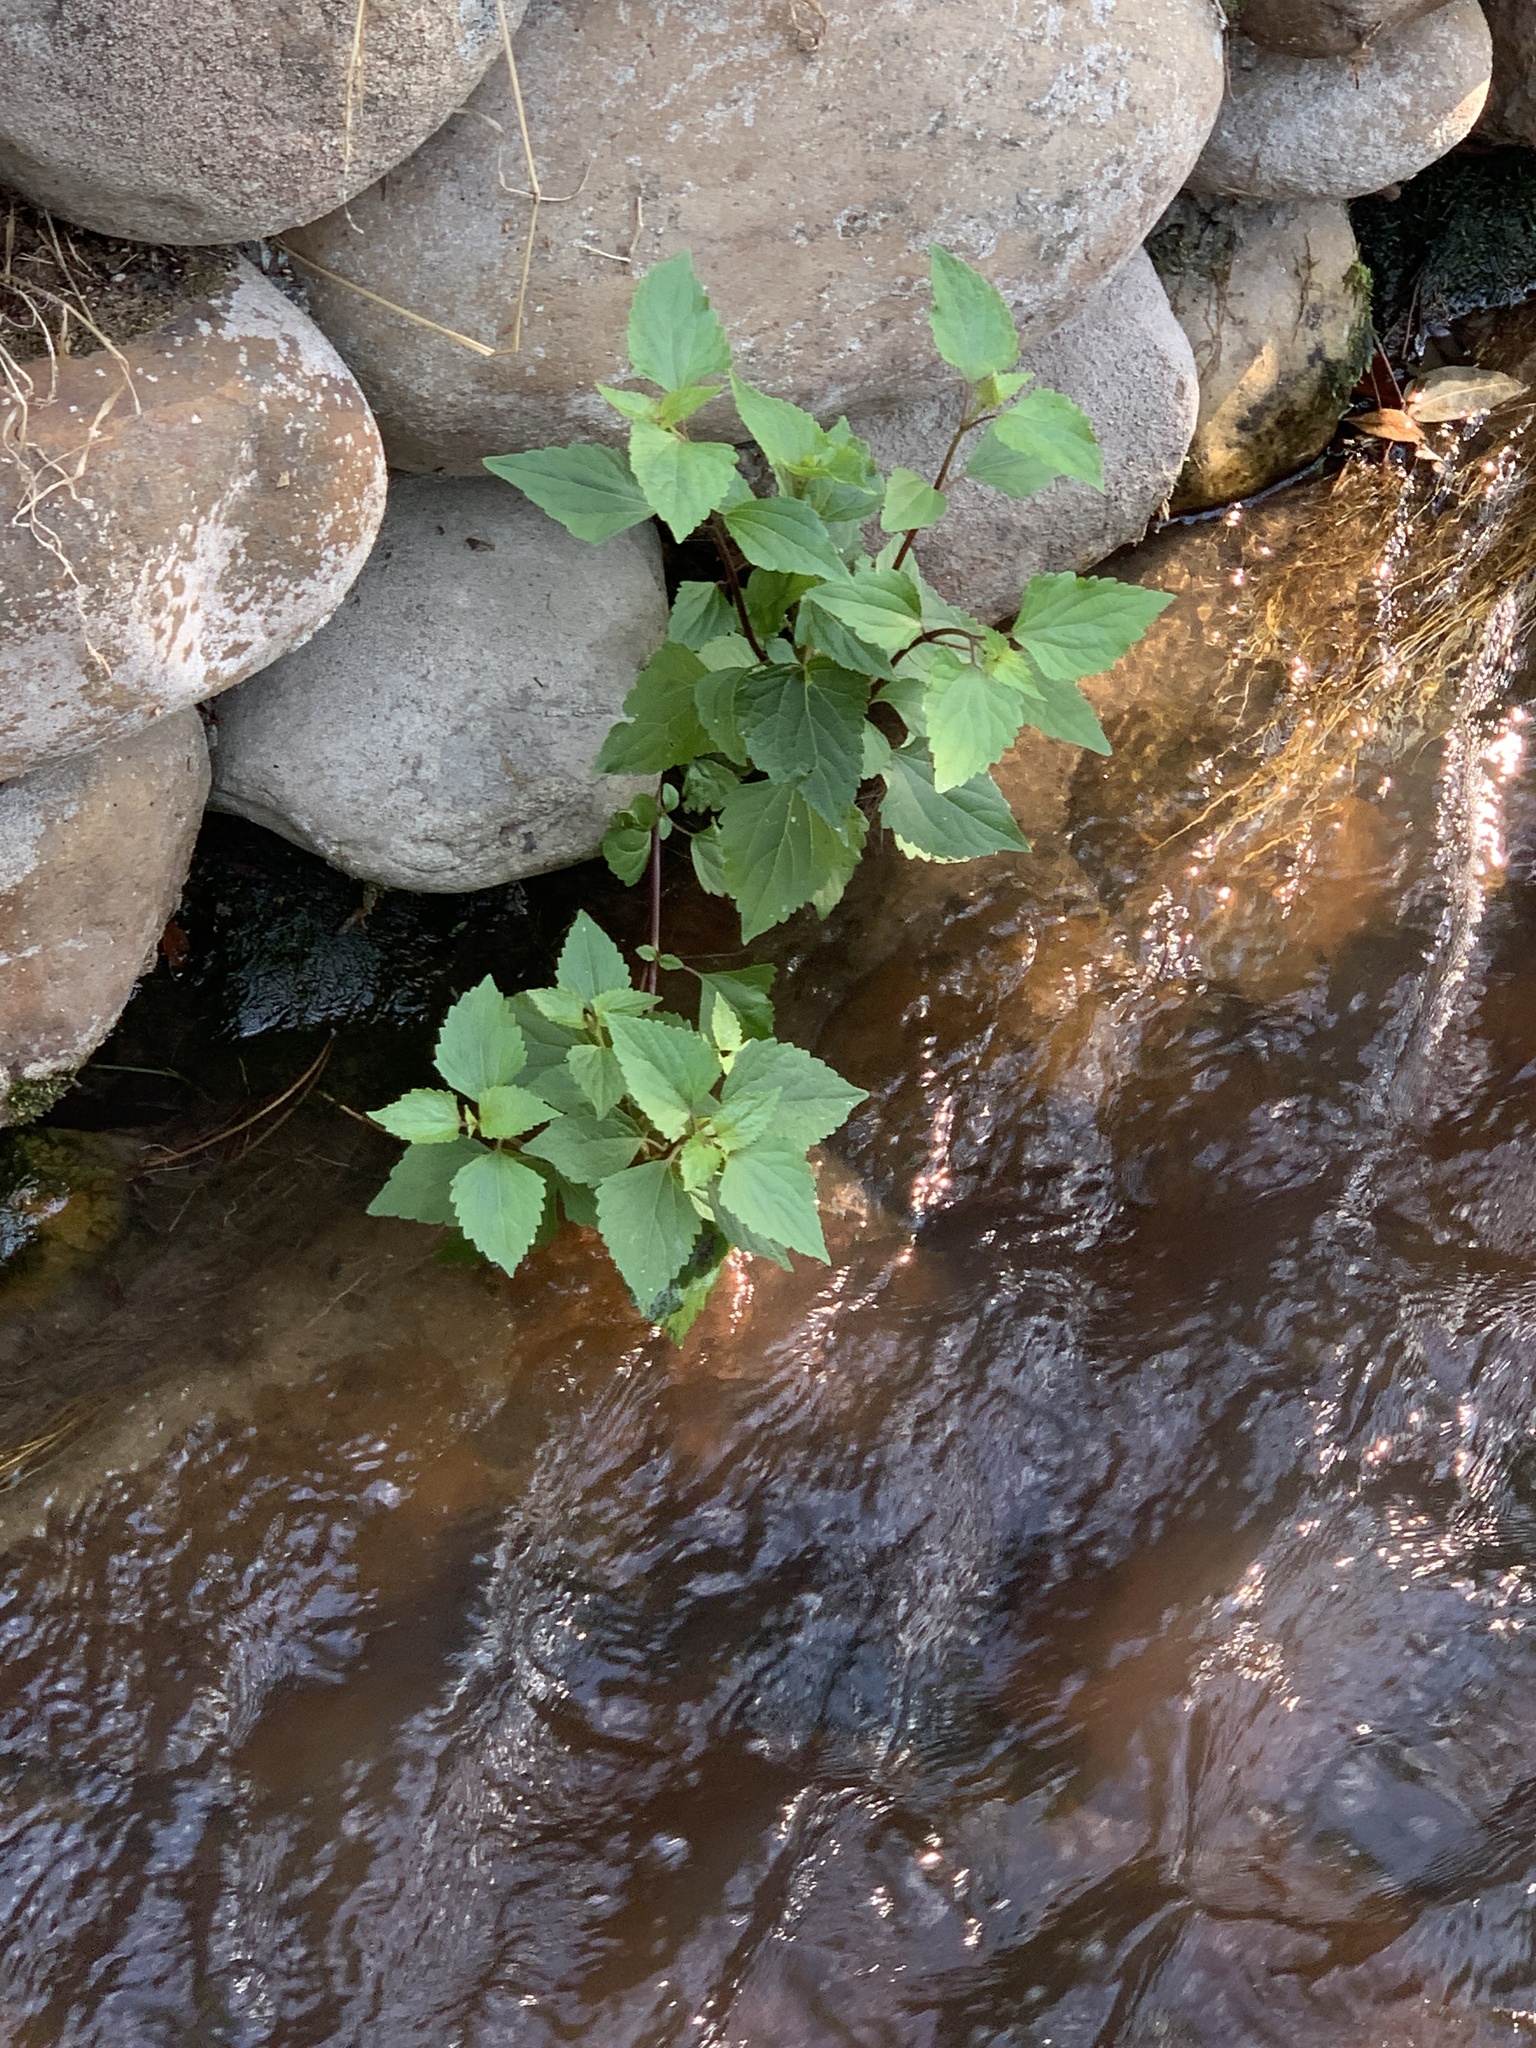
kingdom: Plantae
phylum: Tracheophyta
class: Magnoliopsida
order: Asterales
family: Asteraceae
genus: Ageratina
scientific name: Ageratina adenophora
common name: Sticky snakeroot
